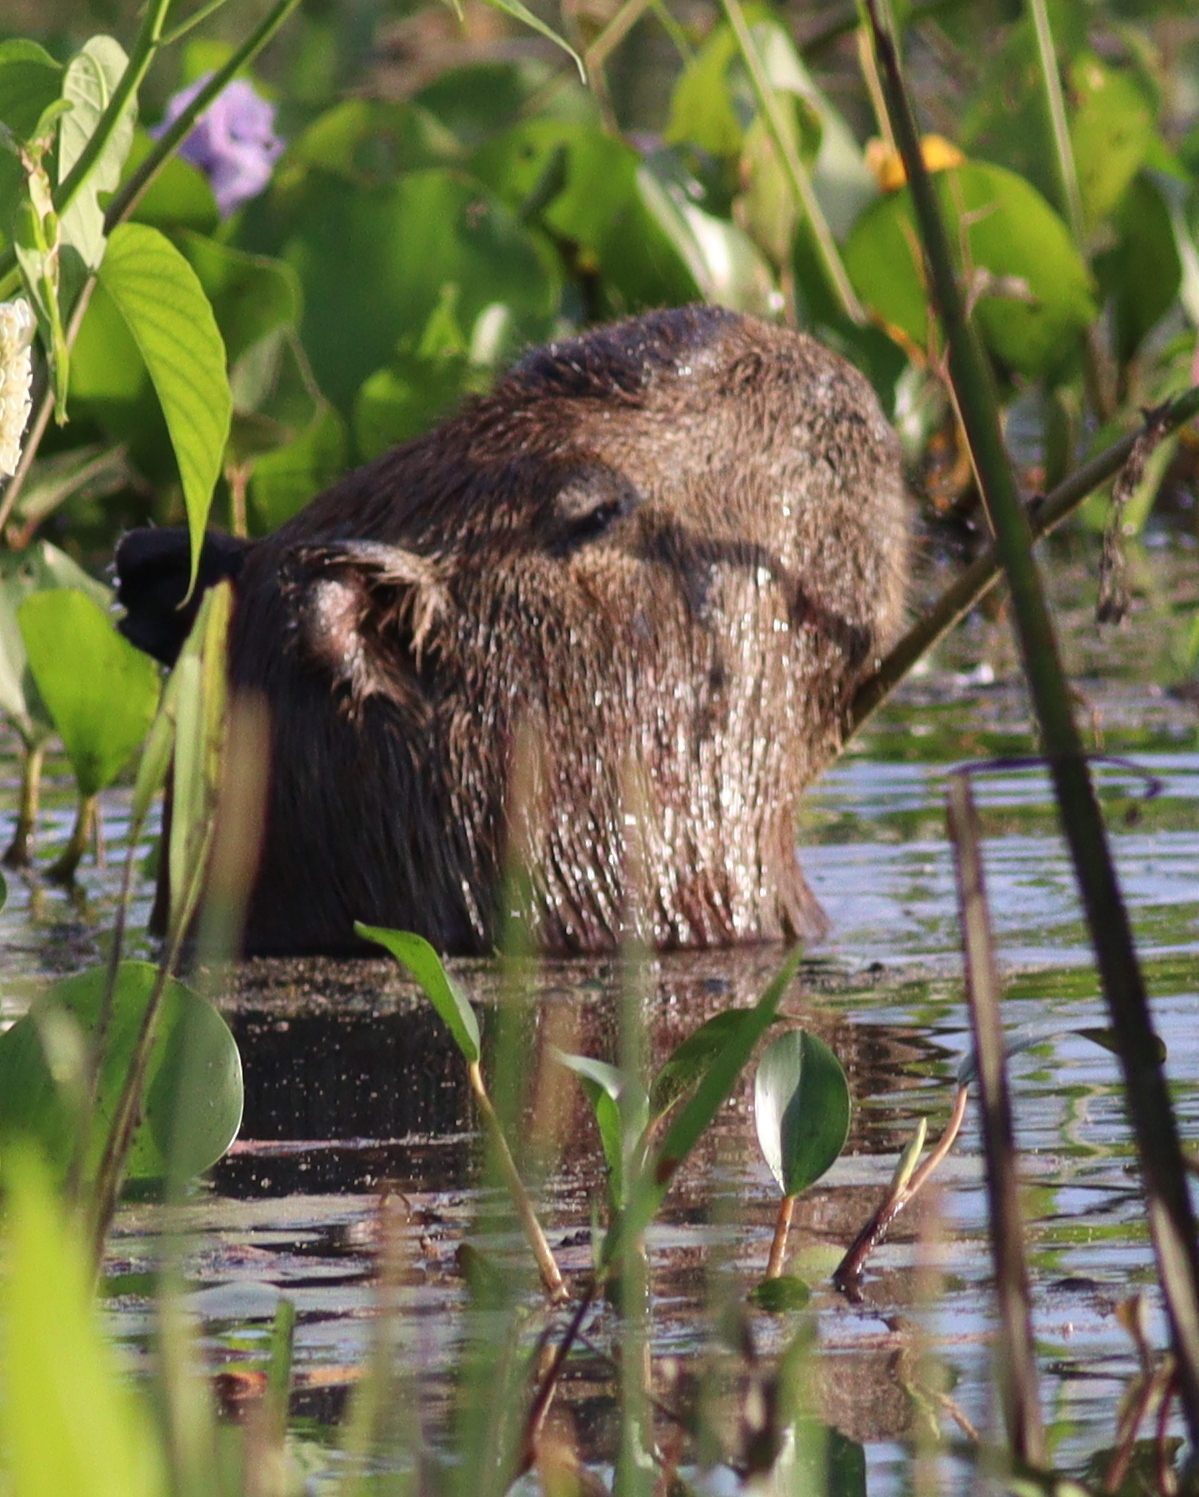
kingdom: Animalia
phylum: Chordata
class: Mammalia
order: Rodentia
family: Caviidae
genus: Hydrochoerus
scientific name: Hydrochoerus hydrochaeris
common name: Capybara
